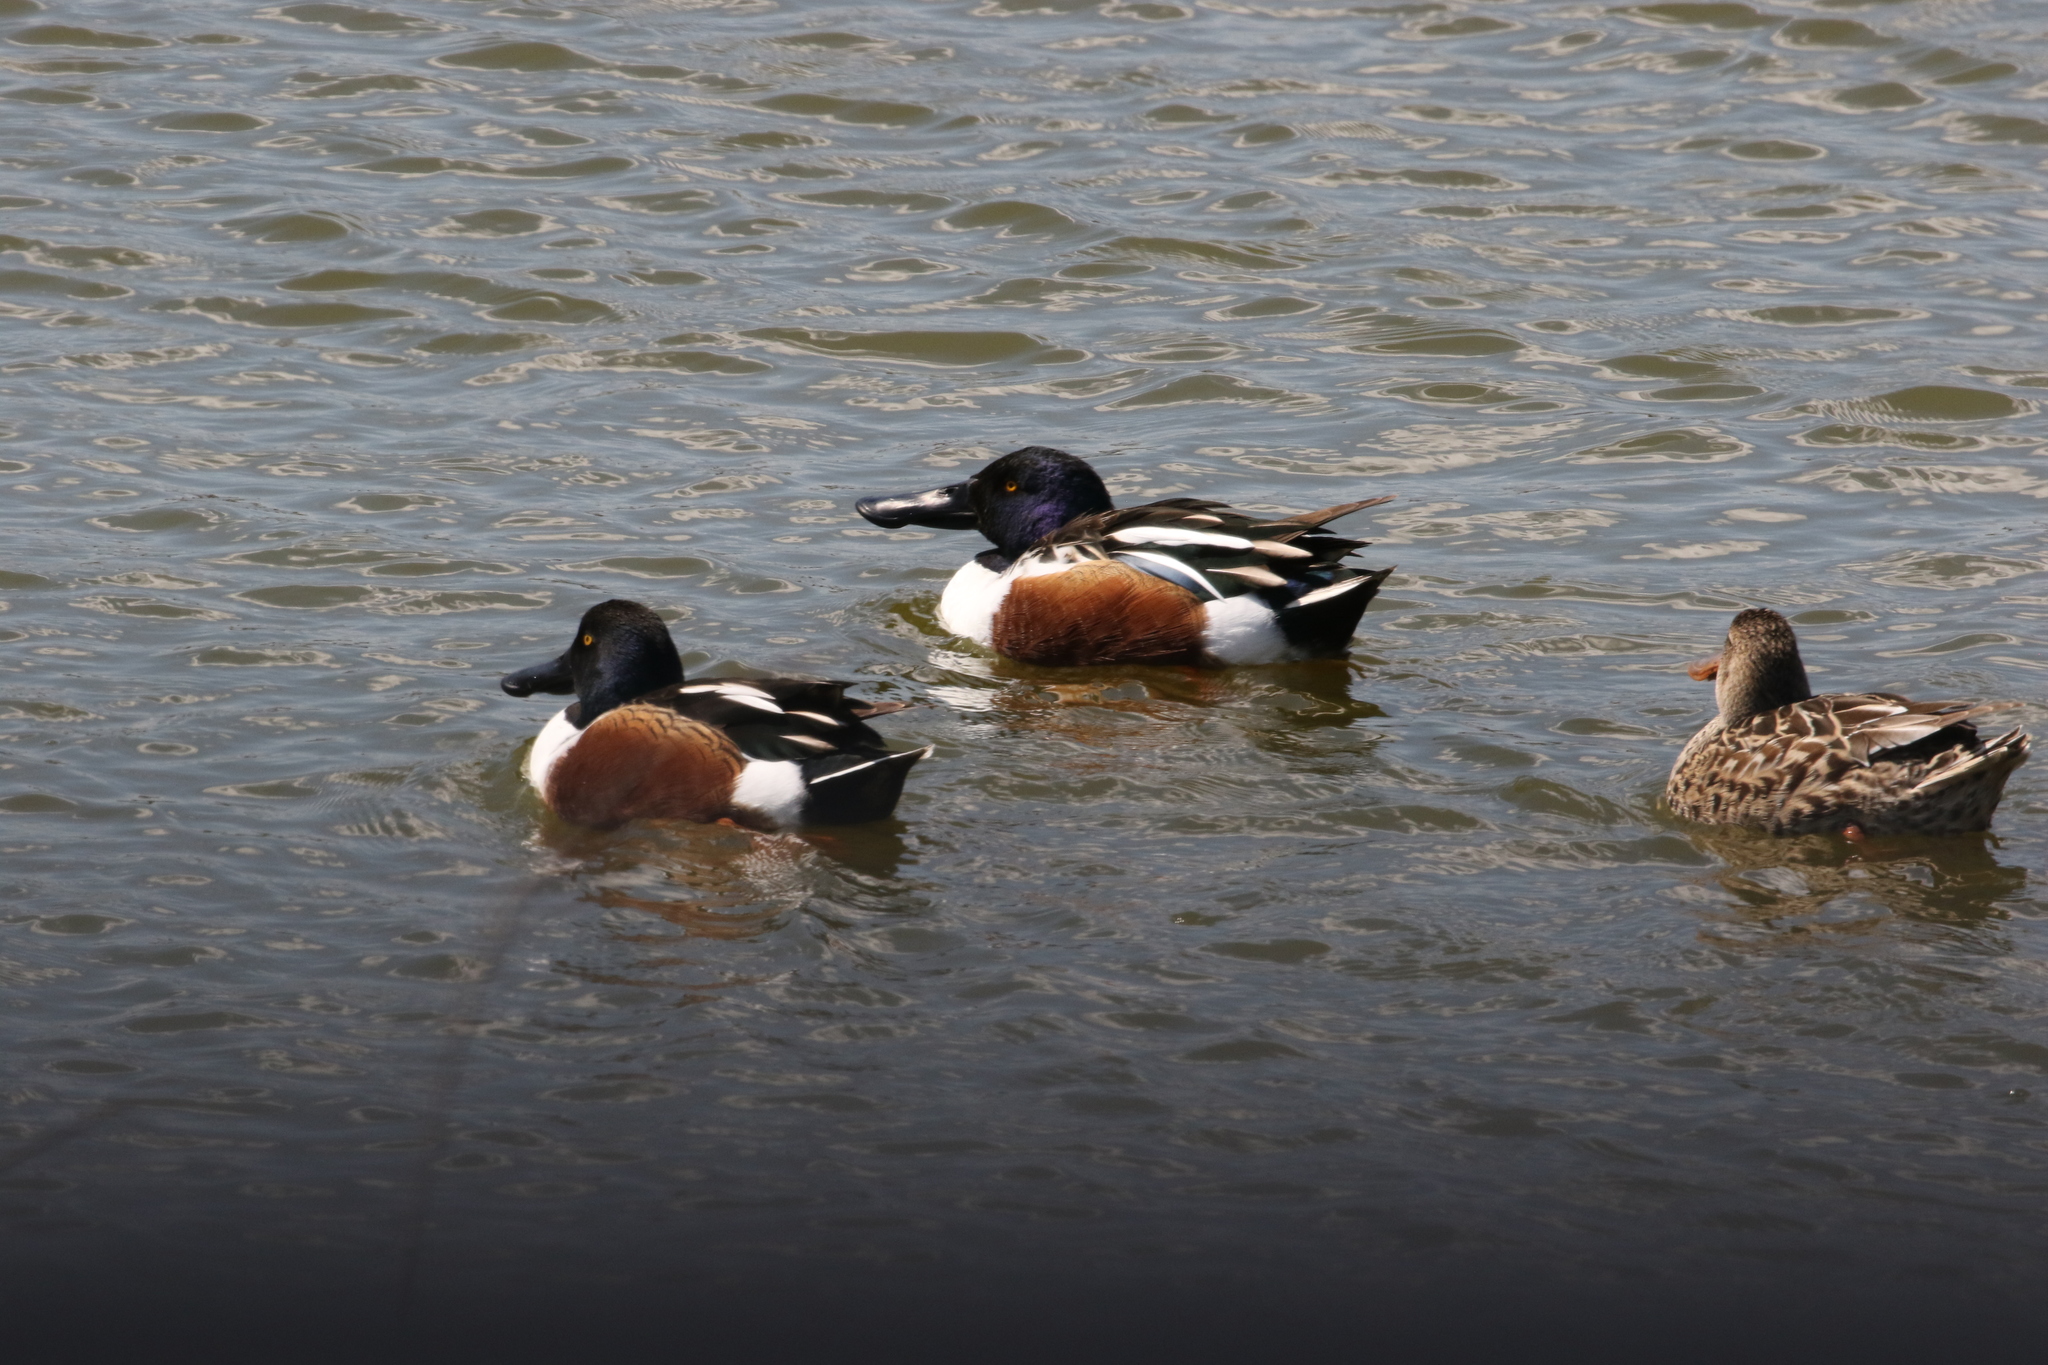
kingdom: Animalia
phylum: Chordata
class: Aves
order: Anseriformes
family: Anatidae
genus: Spatula
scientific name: Spatula clypeata
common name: Northern shoveler
